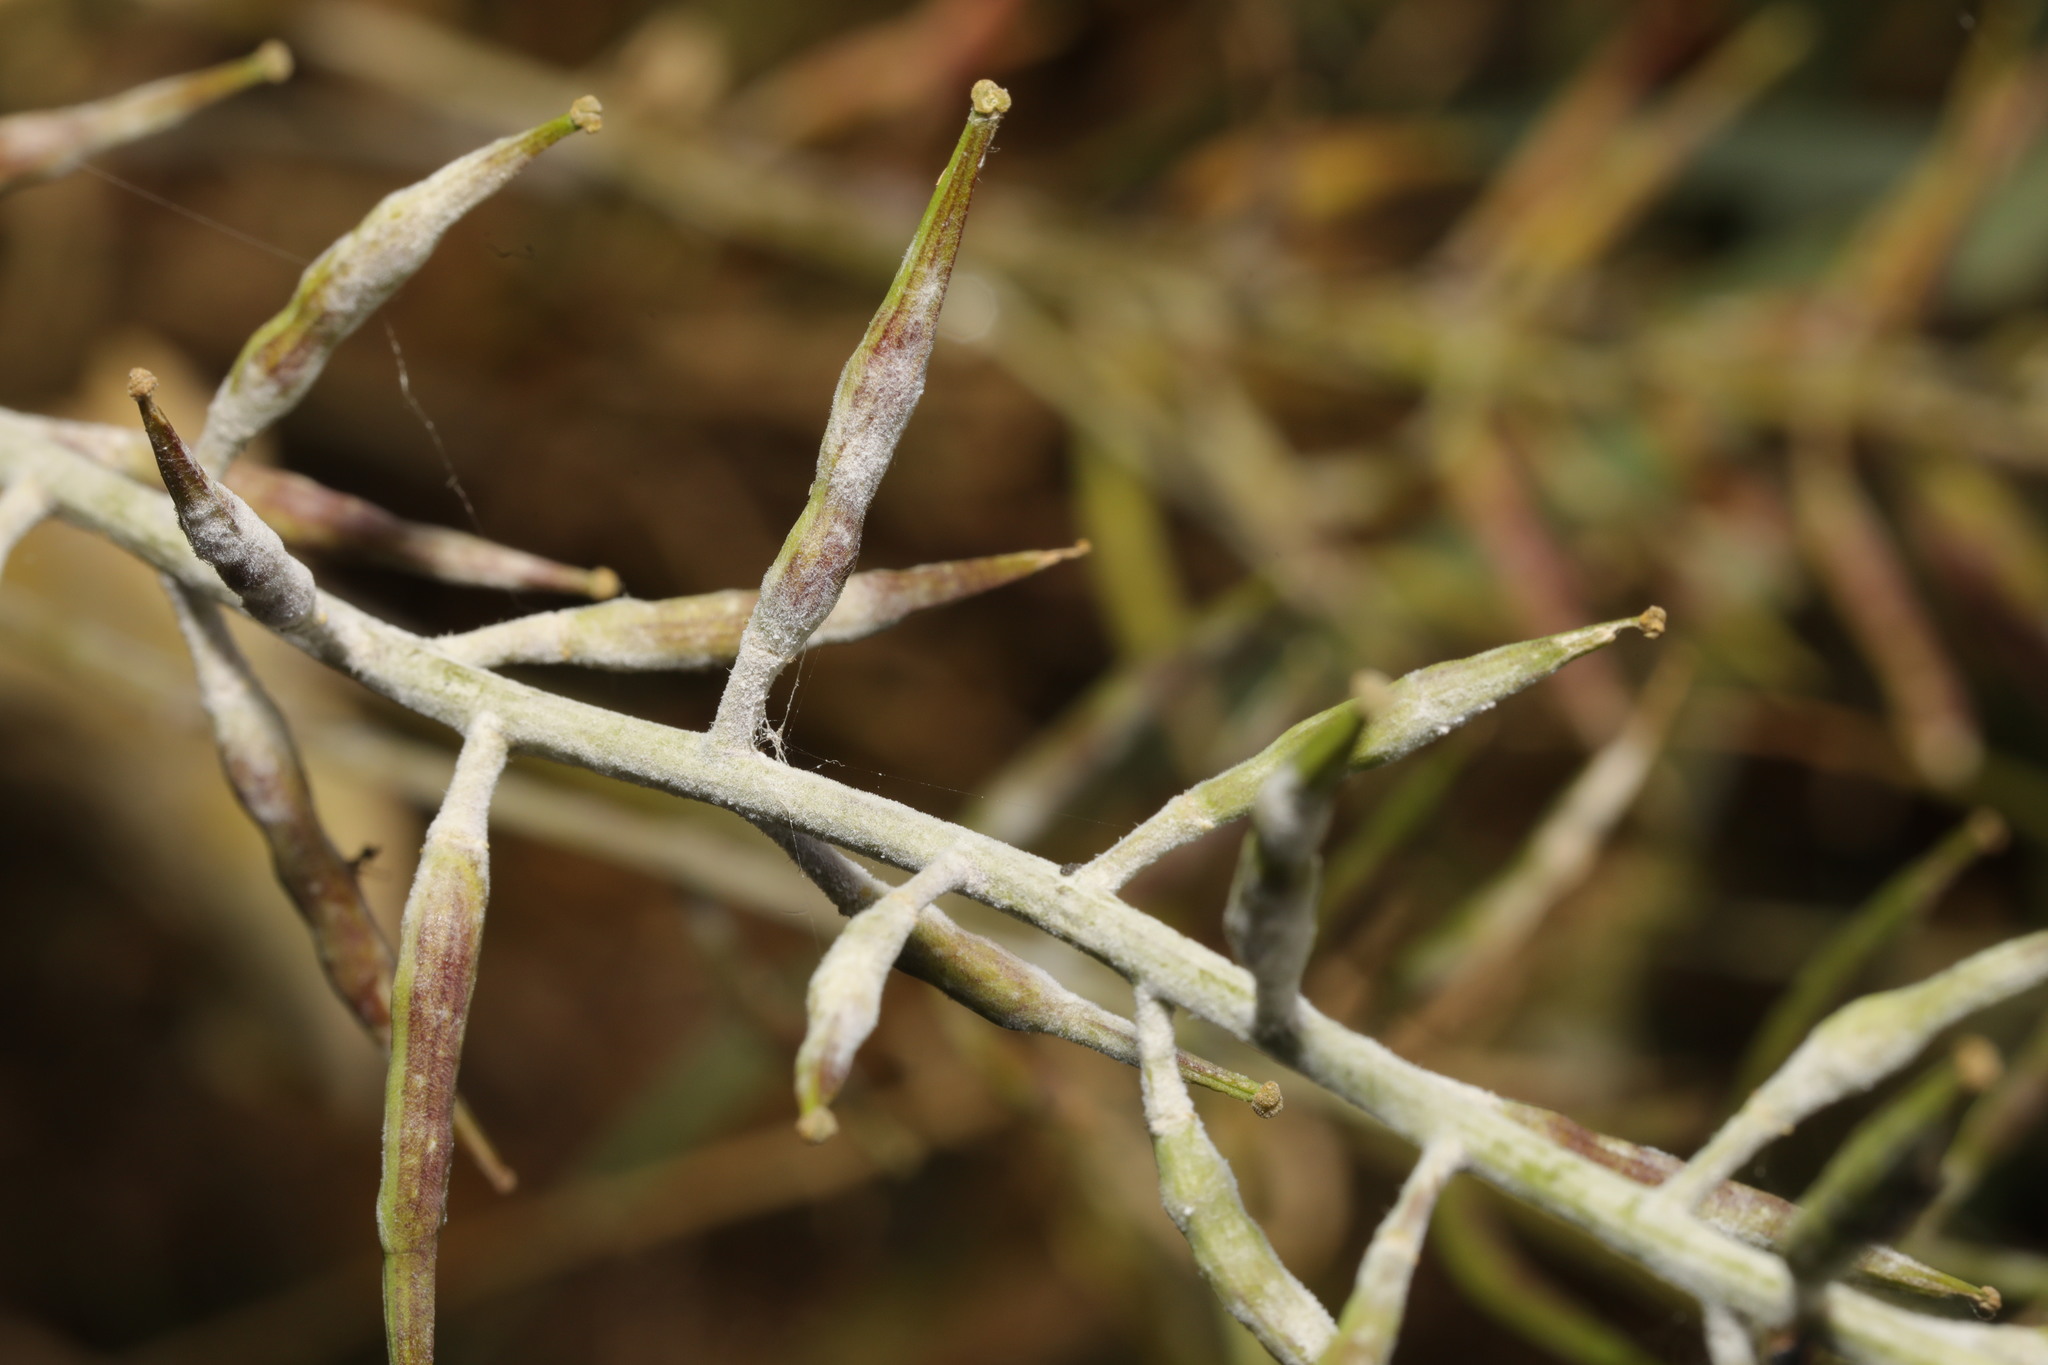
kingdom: Fungi
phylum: Ascomycota
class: Leotiomycetes
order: Helotiales
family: Erysiphaceae
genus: Erysiphe
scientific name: Erysiphe cruciferarum
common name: Brassica powdery mildew
